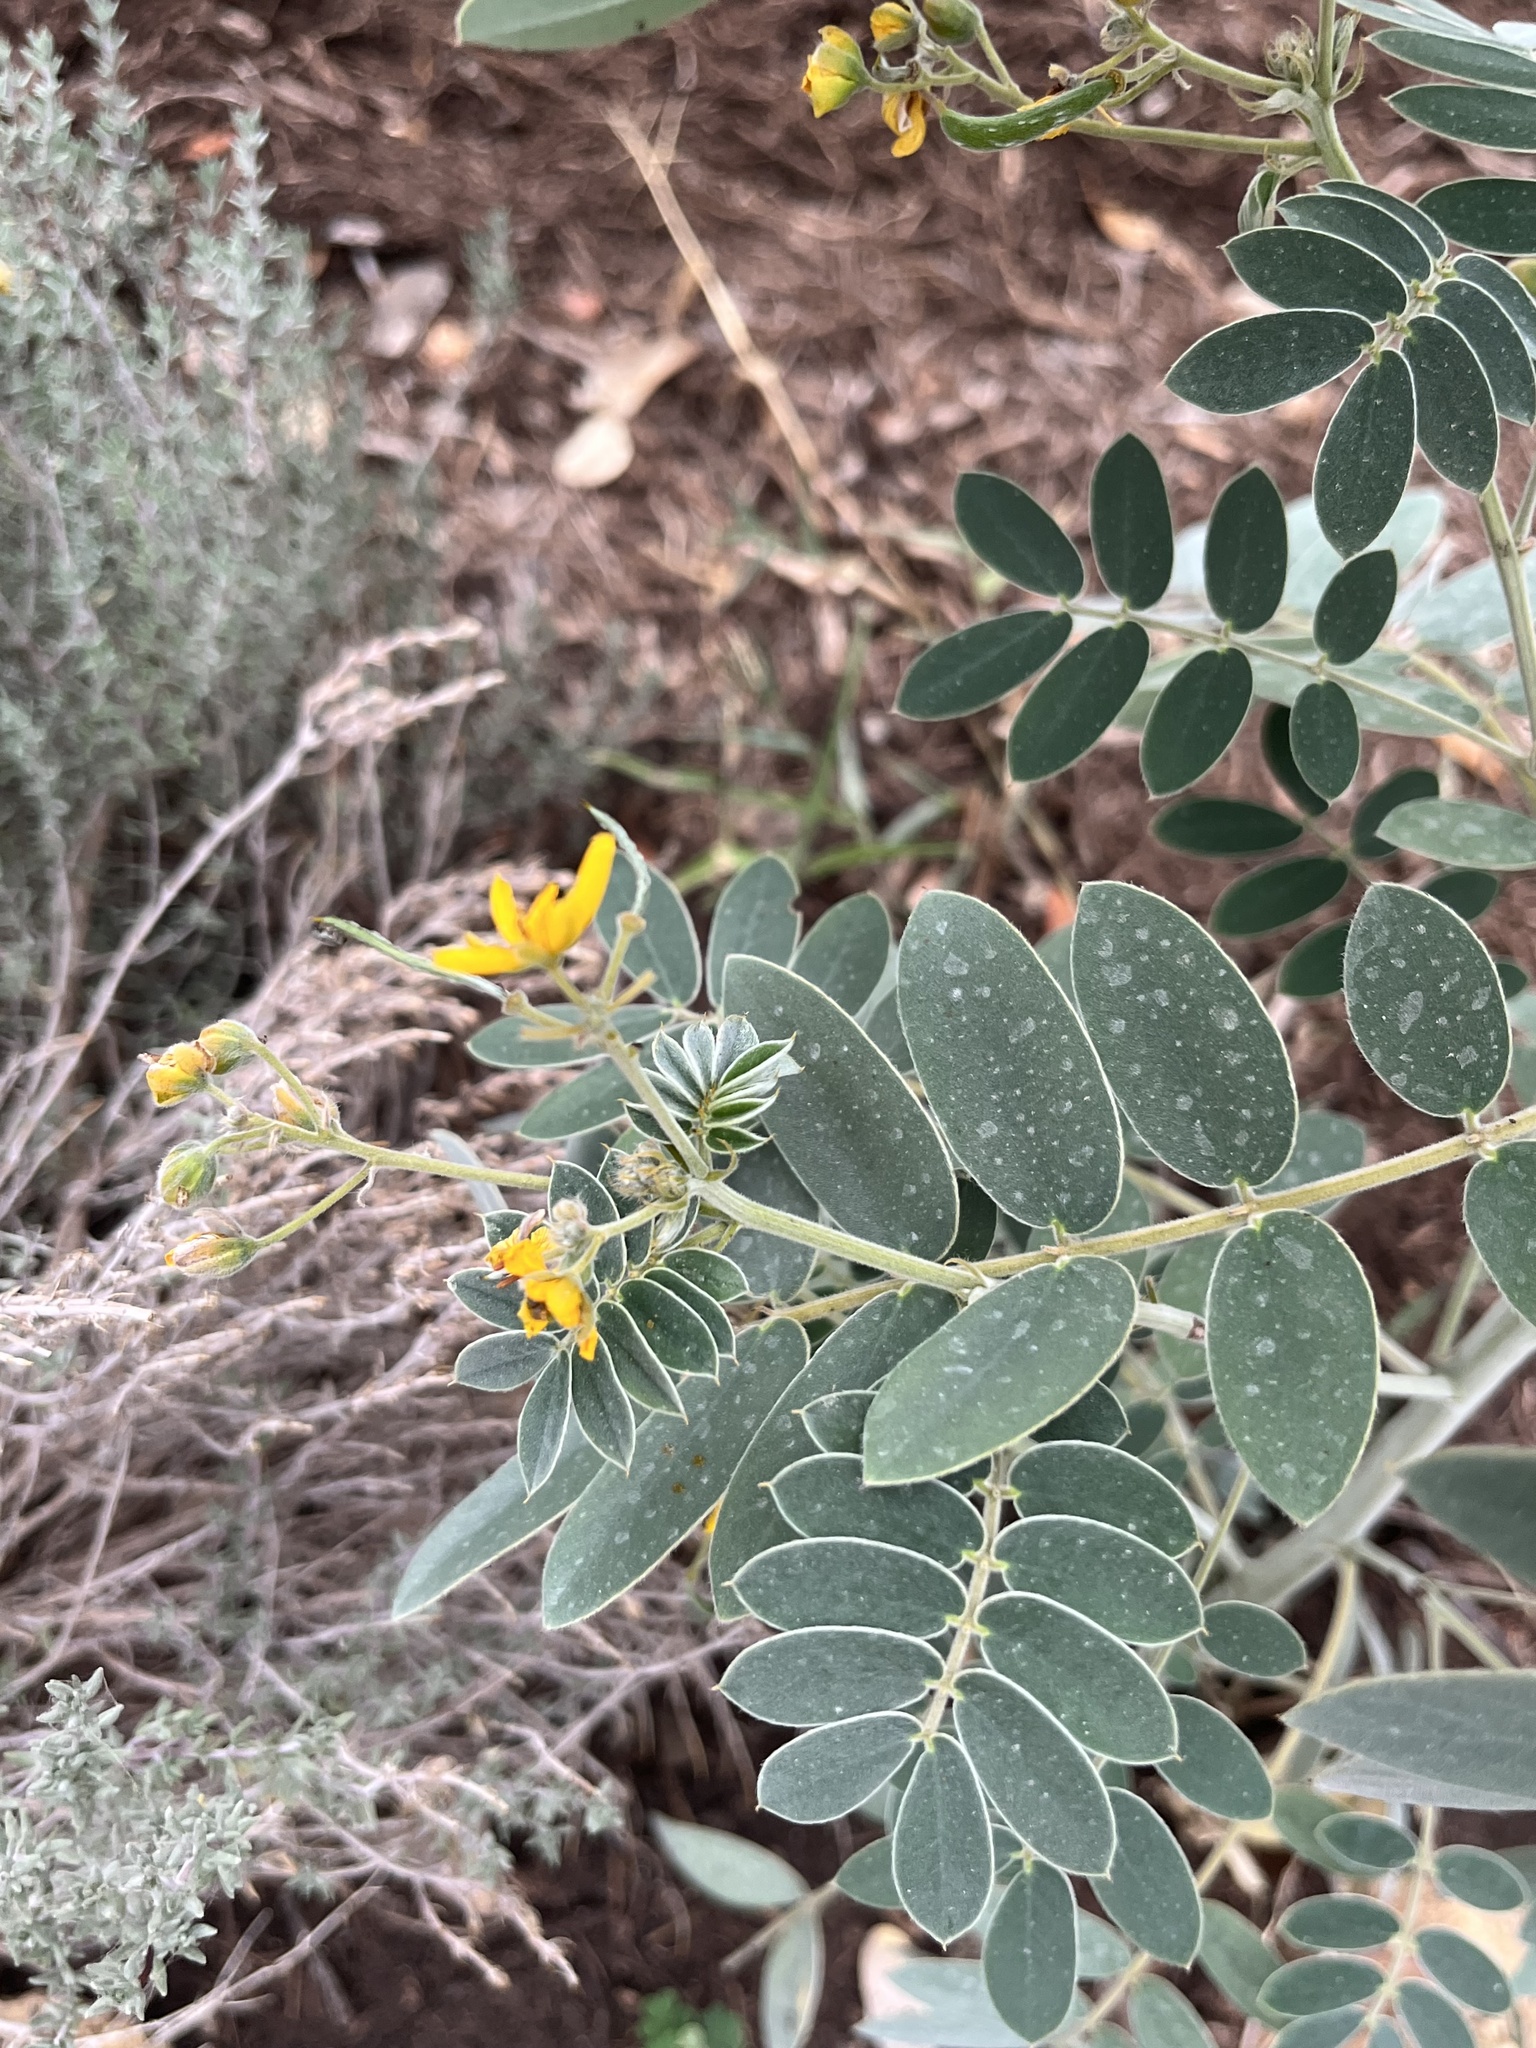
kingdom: Plantae
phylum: Tracheophyta
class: Magnoliopsida
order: Fabales
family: Fabaceae
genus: Senna
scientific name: Senna lindheimeriana
